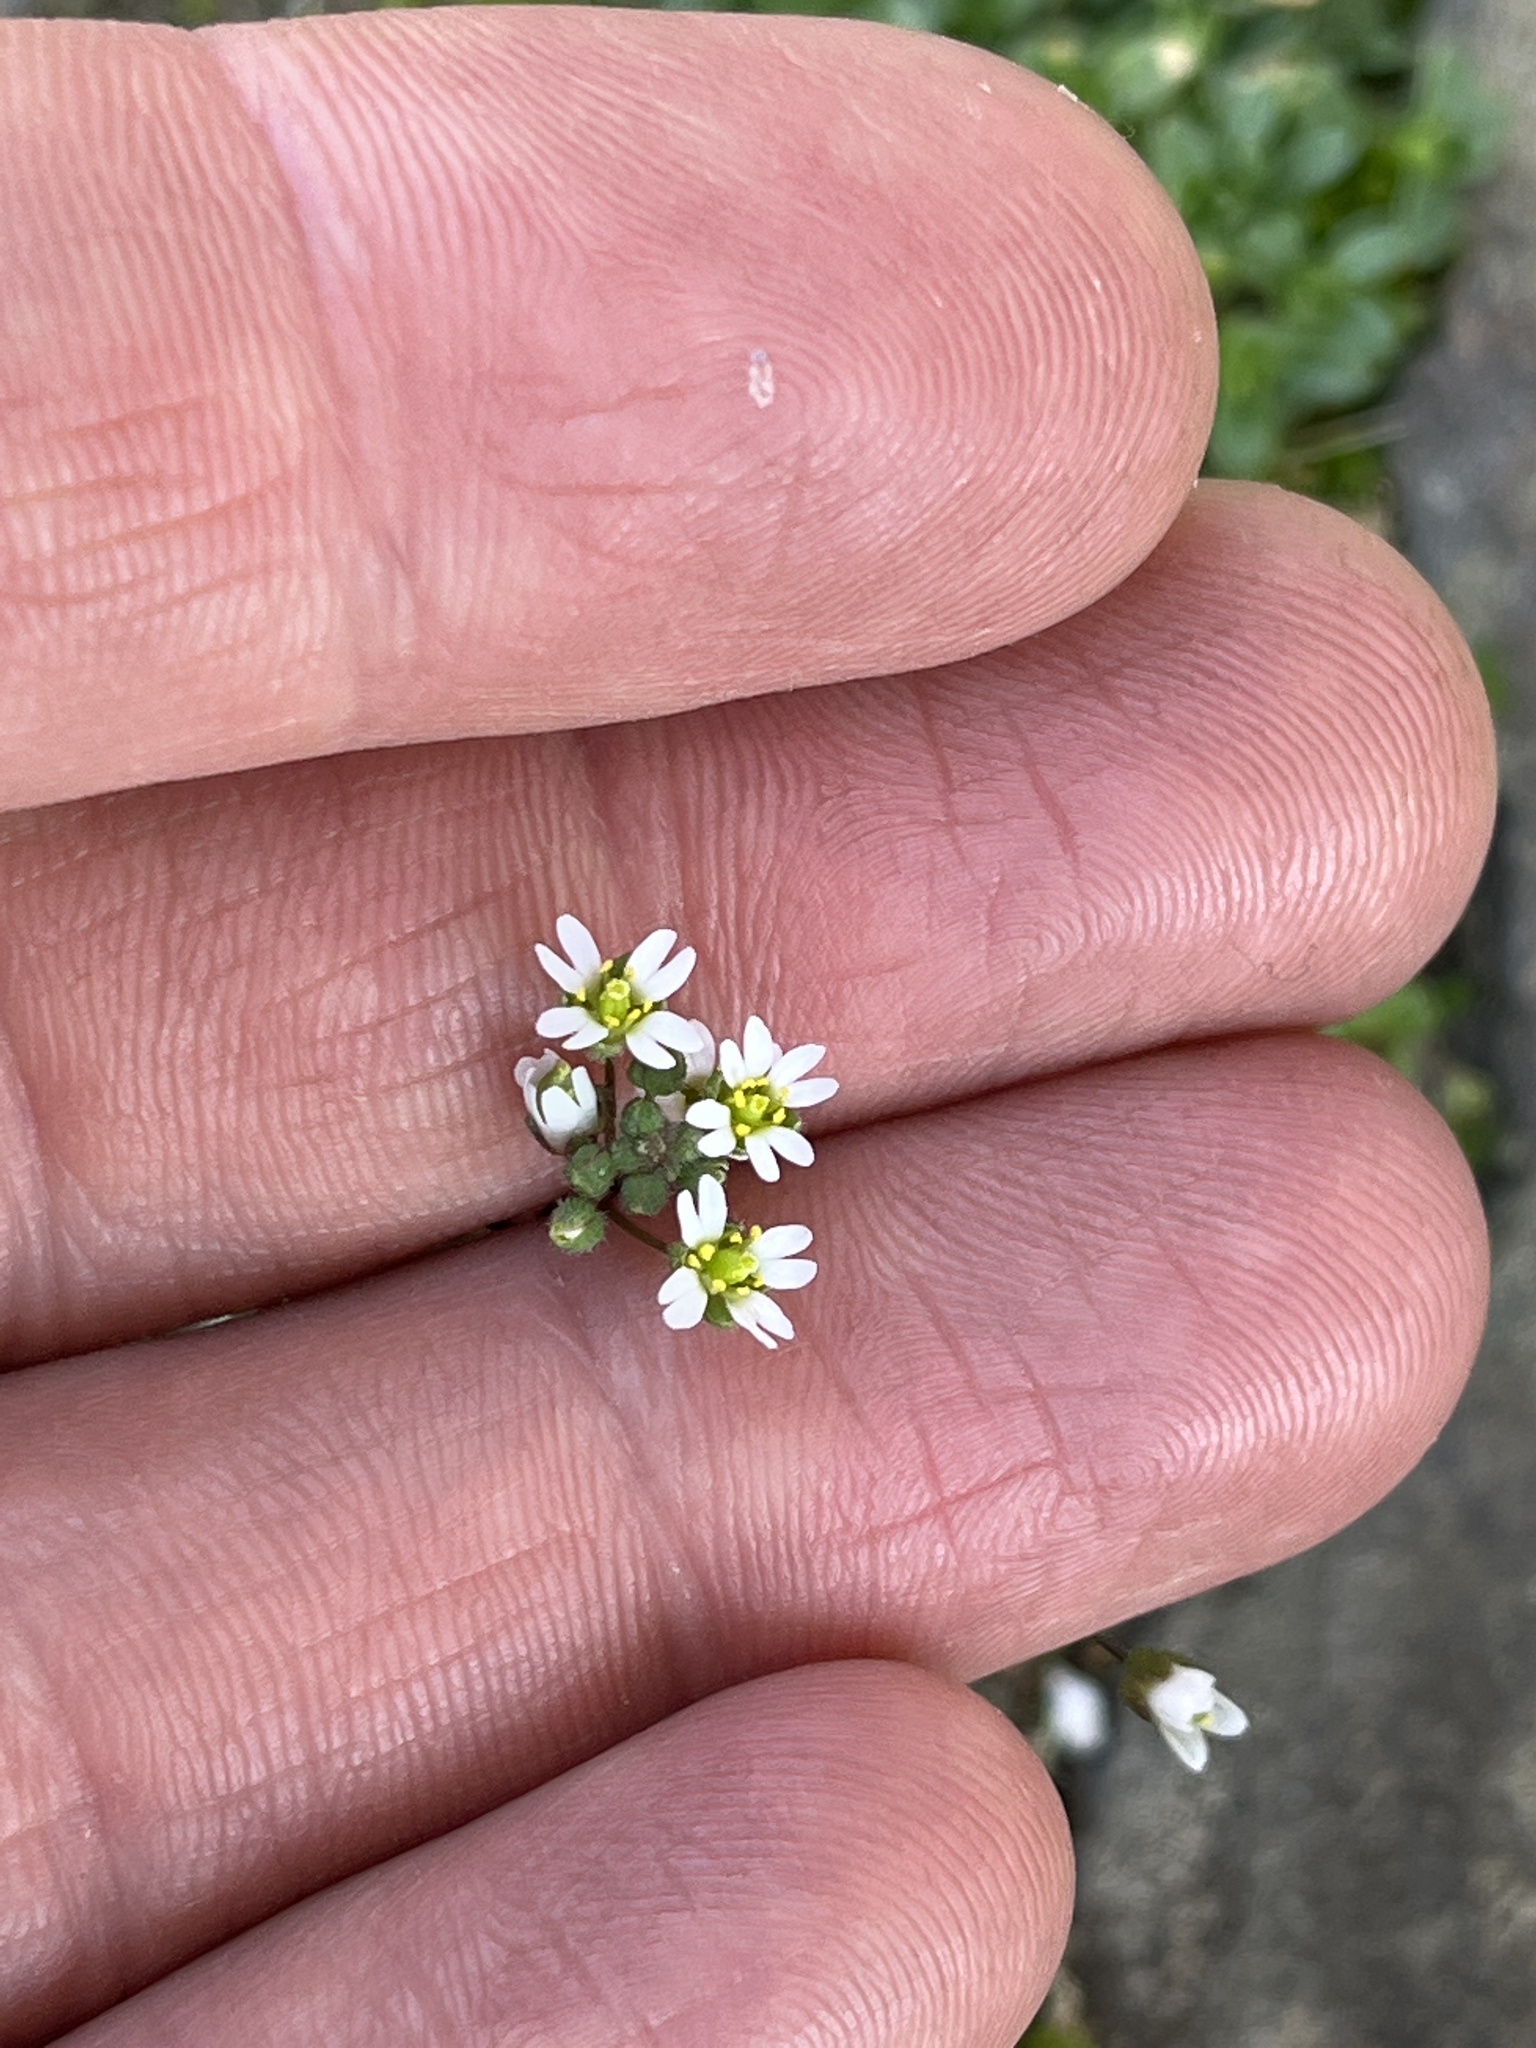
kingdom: Plantae
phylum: Tracheophyta
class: Magnoliopsida
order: Brassicales
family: Brassicaceae
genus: Draba
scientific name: Draba verna
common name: Spring draba
